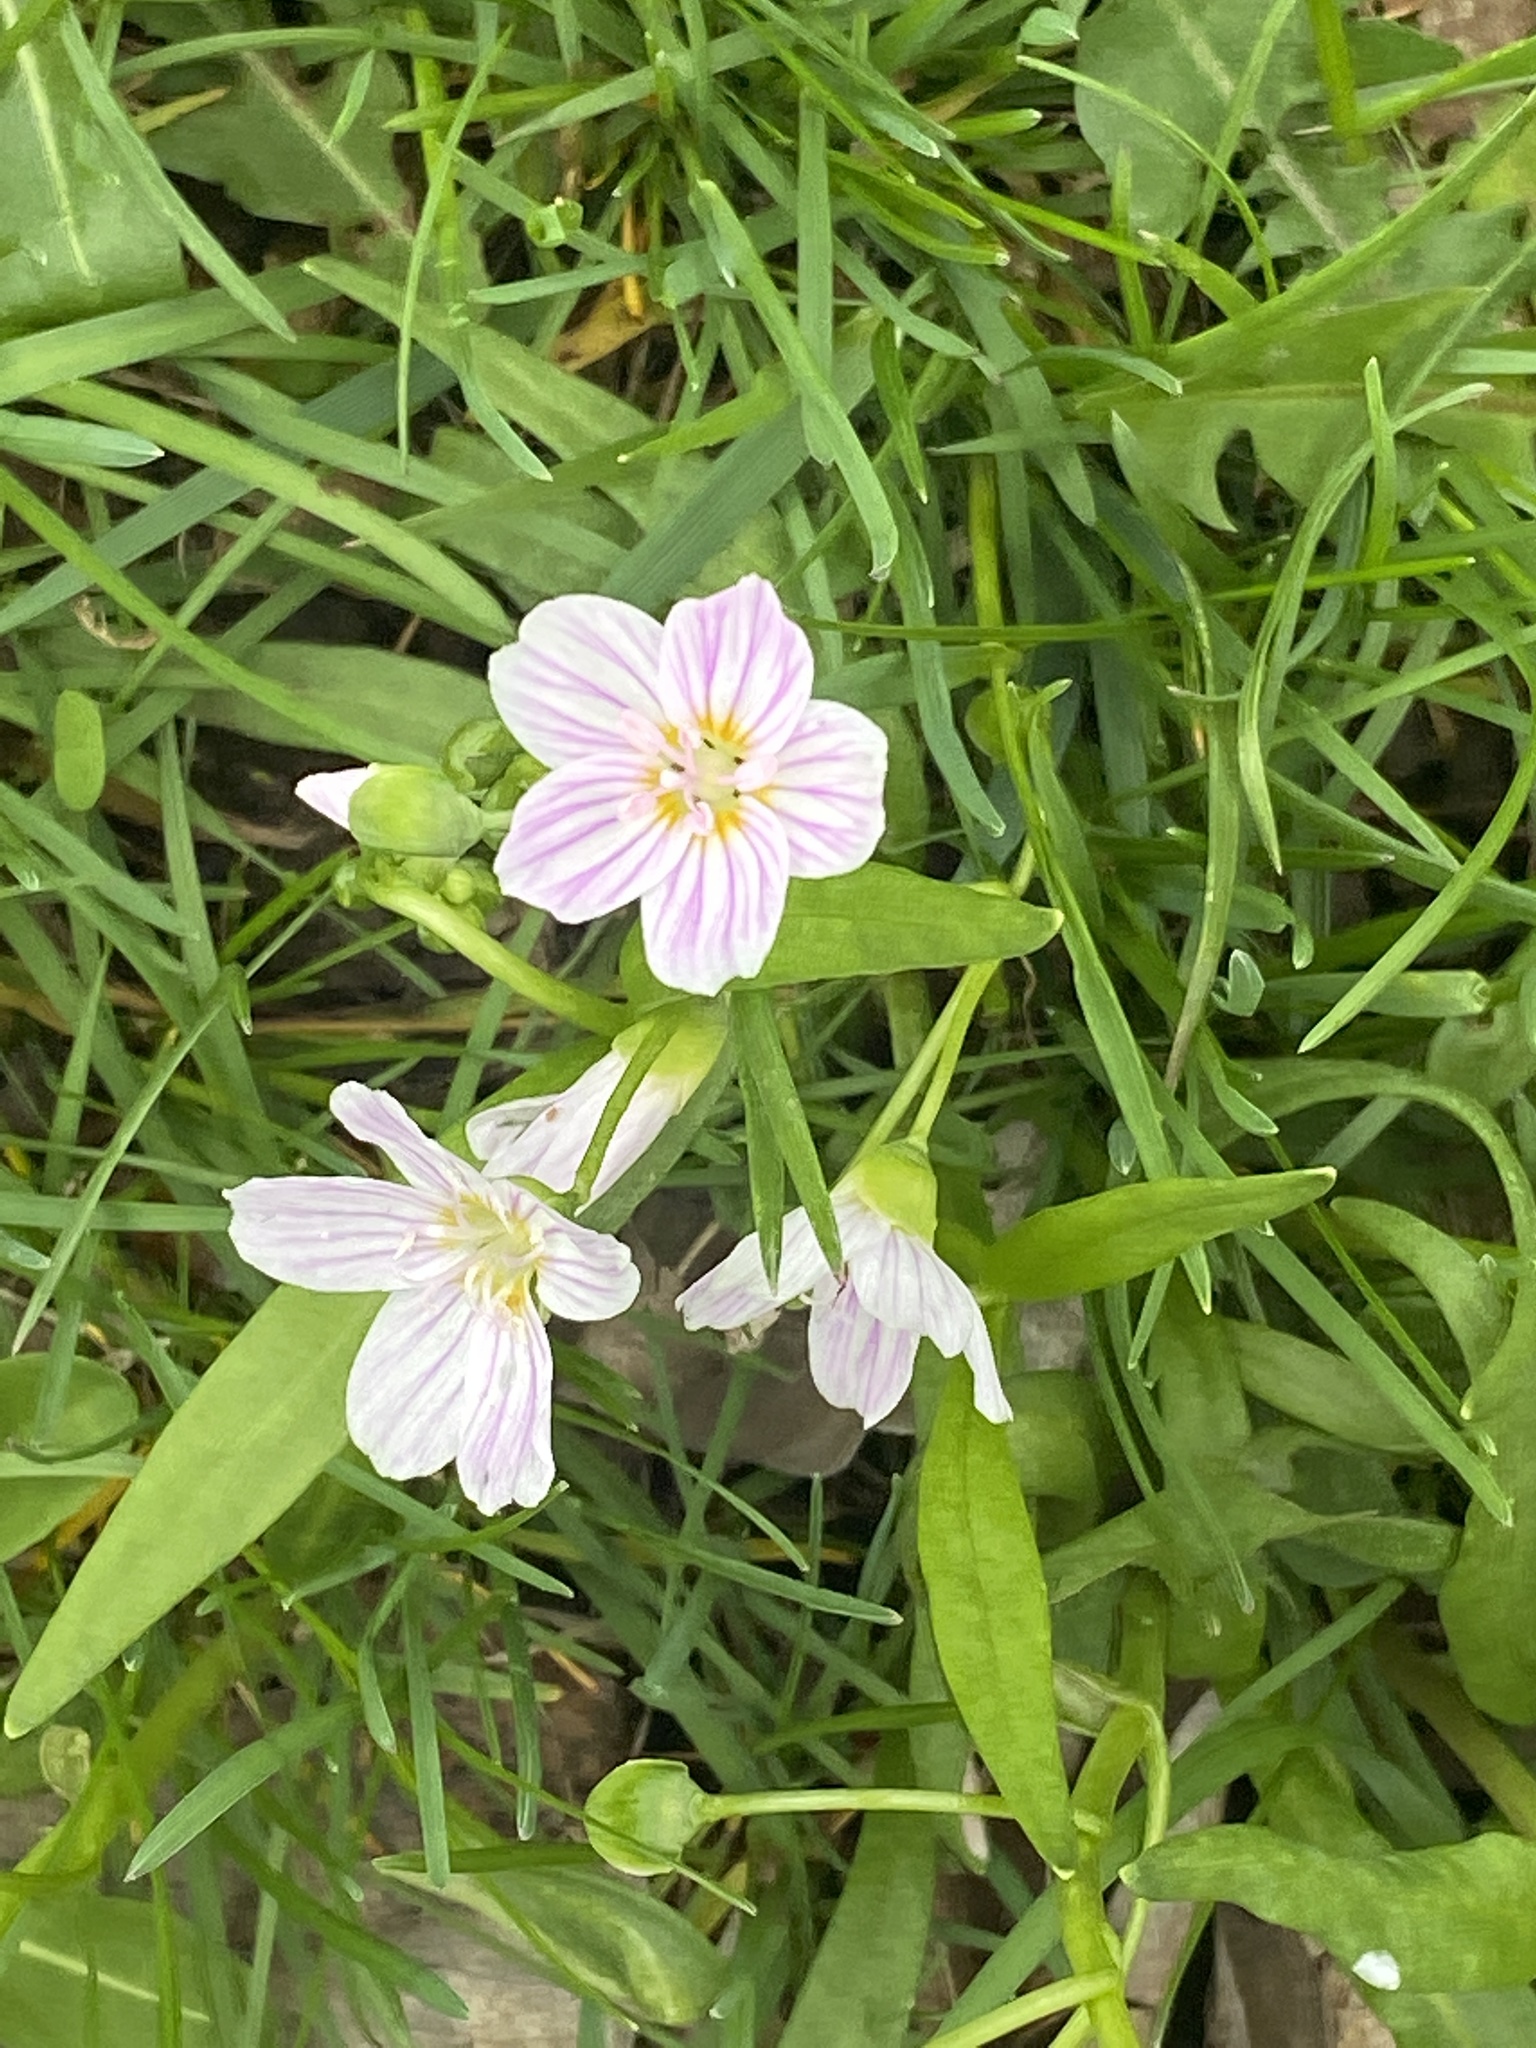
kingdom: Plantae
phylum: Tracheophyta
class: Magnoliopsida
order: Caryophyllales
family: Montiaceae
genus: Claytonia
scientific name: Claytonia virginica
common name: Virginia springbeauty
